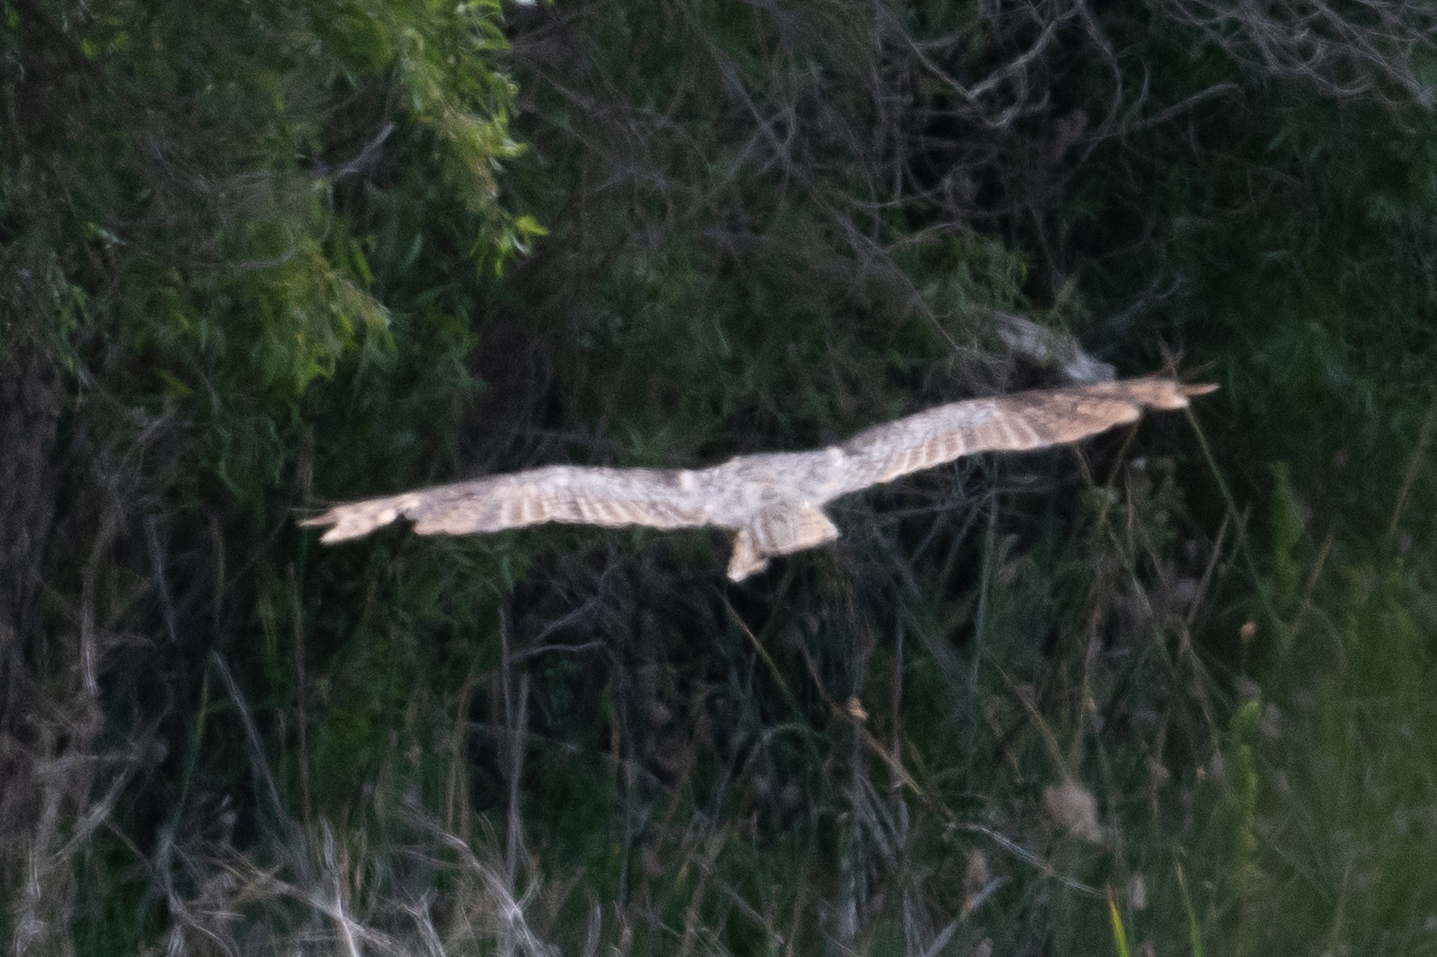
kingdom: Animalia
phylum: Chordata
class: Aves
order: Strigiformes
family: Strigidae
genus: Bubo
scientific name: Bubo virginianus
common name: Great horned owl
